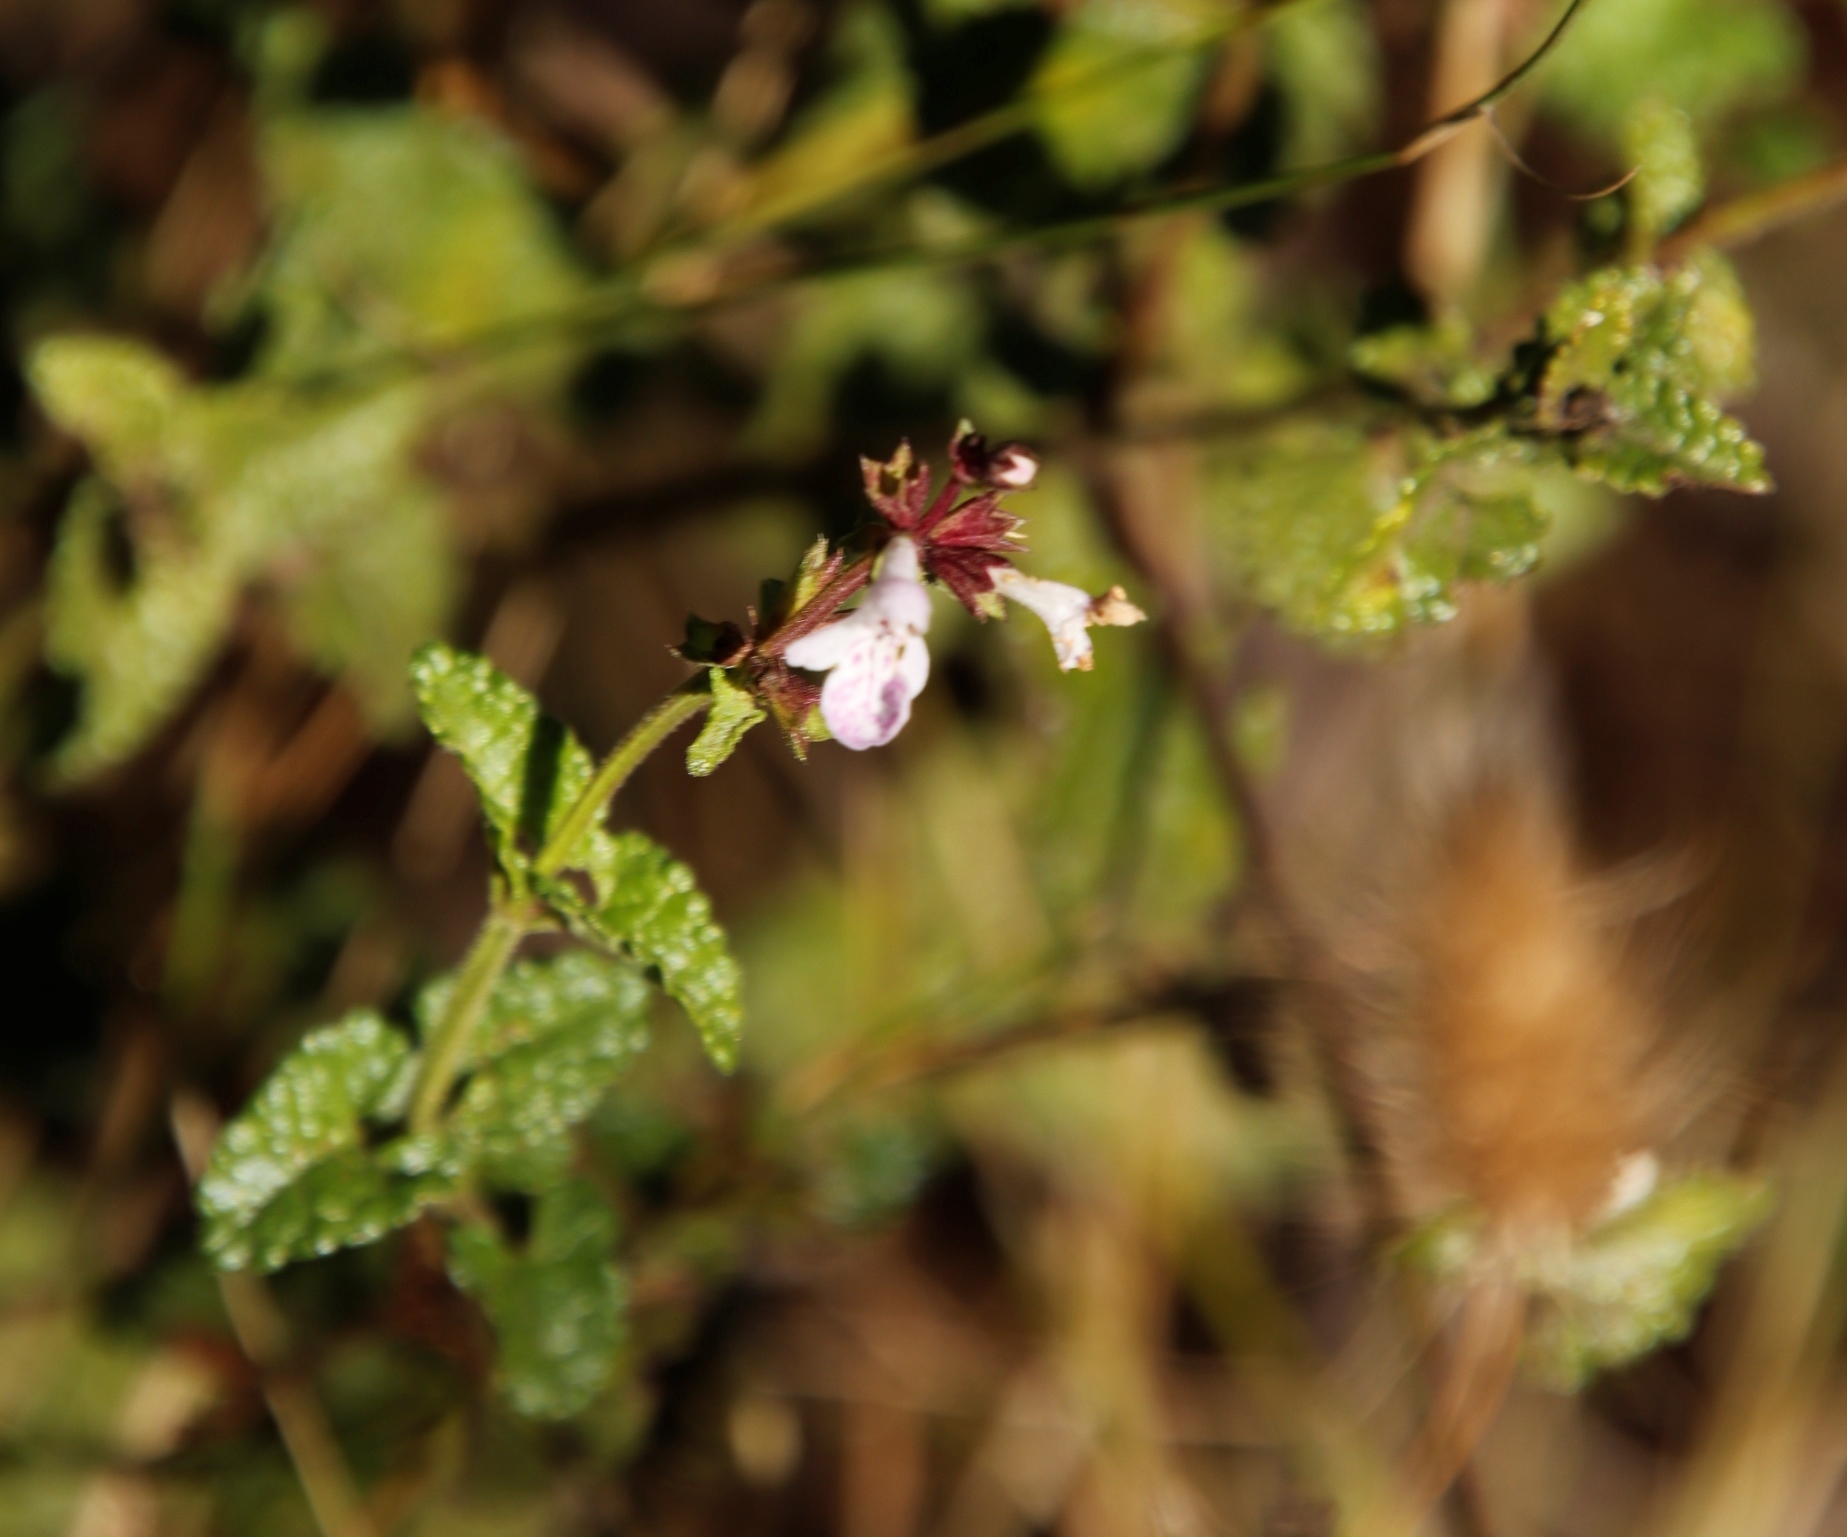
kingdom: Plantae
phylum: Tracheophyta
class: Magnoliopsida
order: Lamiales
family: Lamiaceae
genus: Stachys
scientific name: Stachys aethiopica
